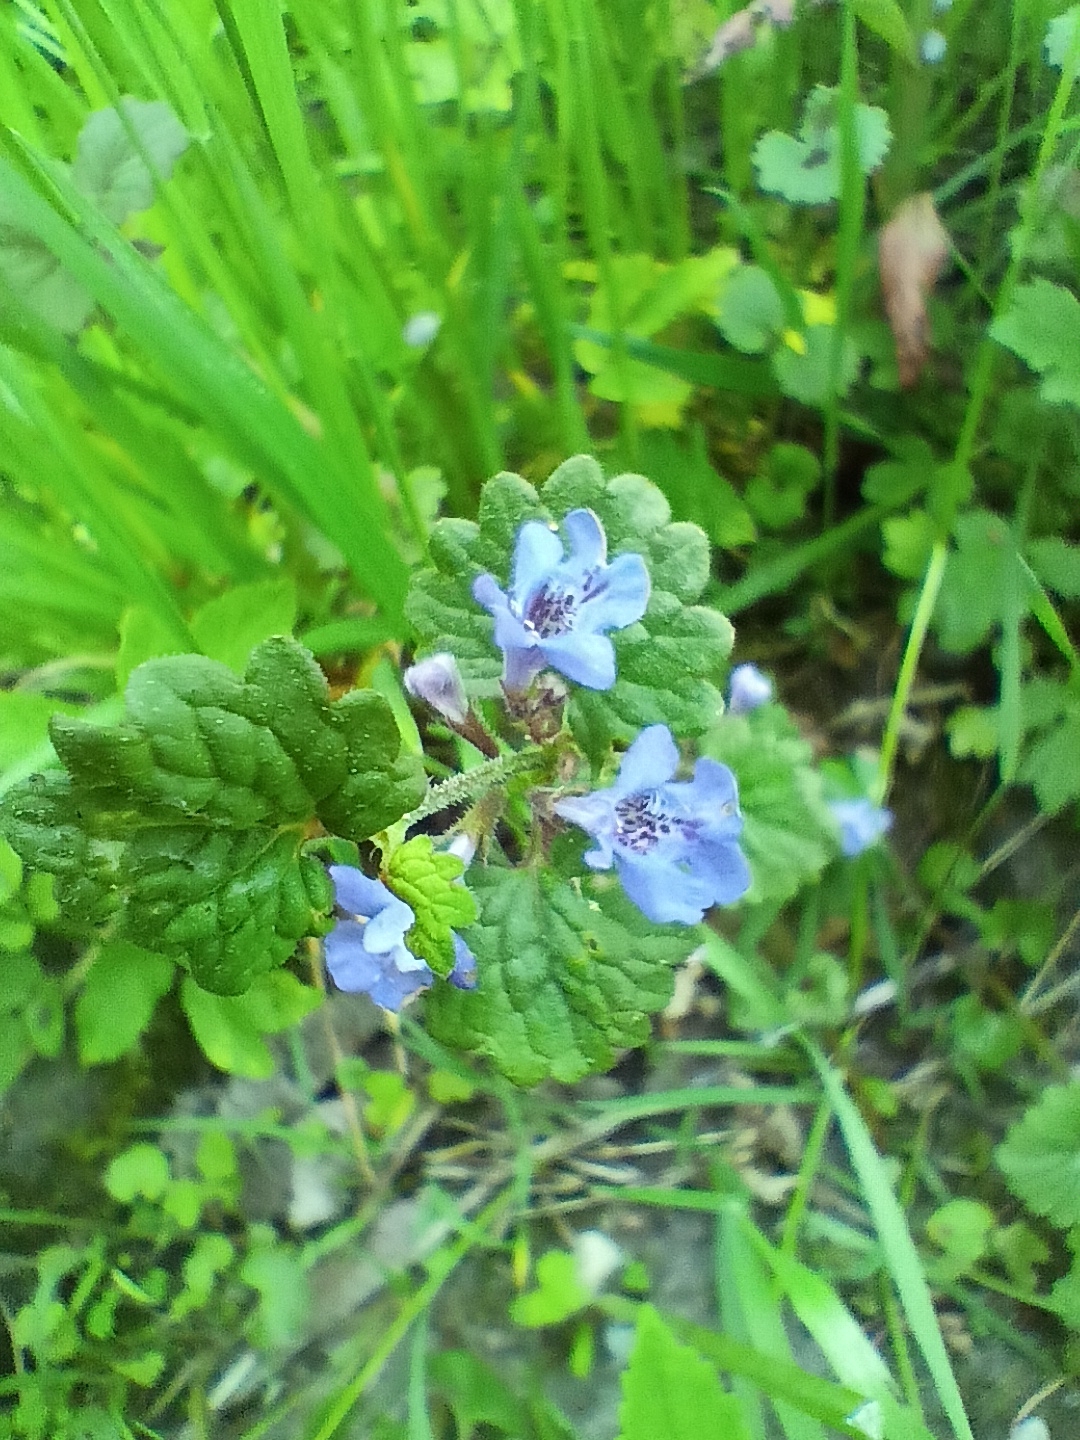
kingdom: Plantae
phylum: Tracheophyta
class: Magnoliopsida
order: Lamiales
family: Lamiaceae
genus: Glechoma
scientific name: Glechoma hederacea
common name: Ground ivy
